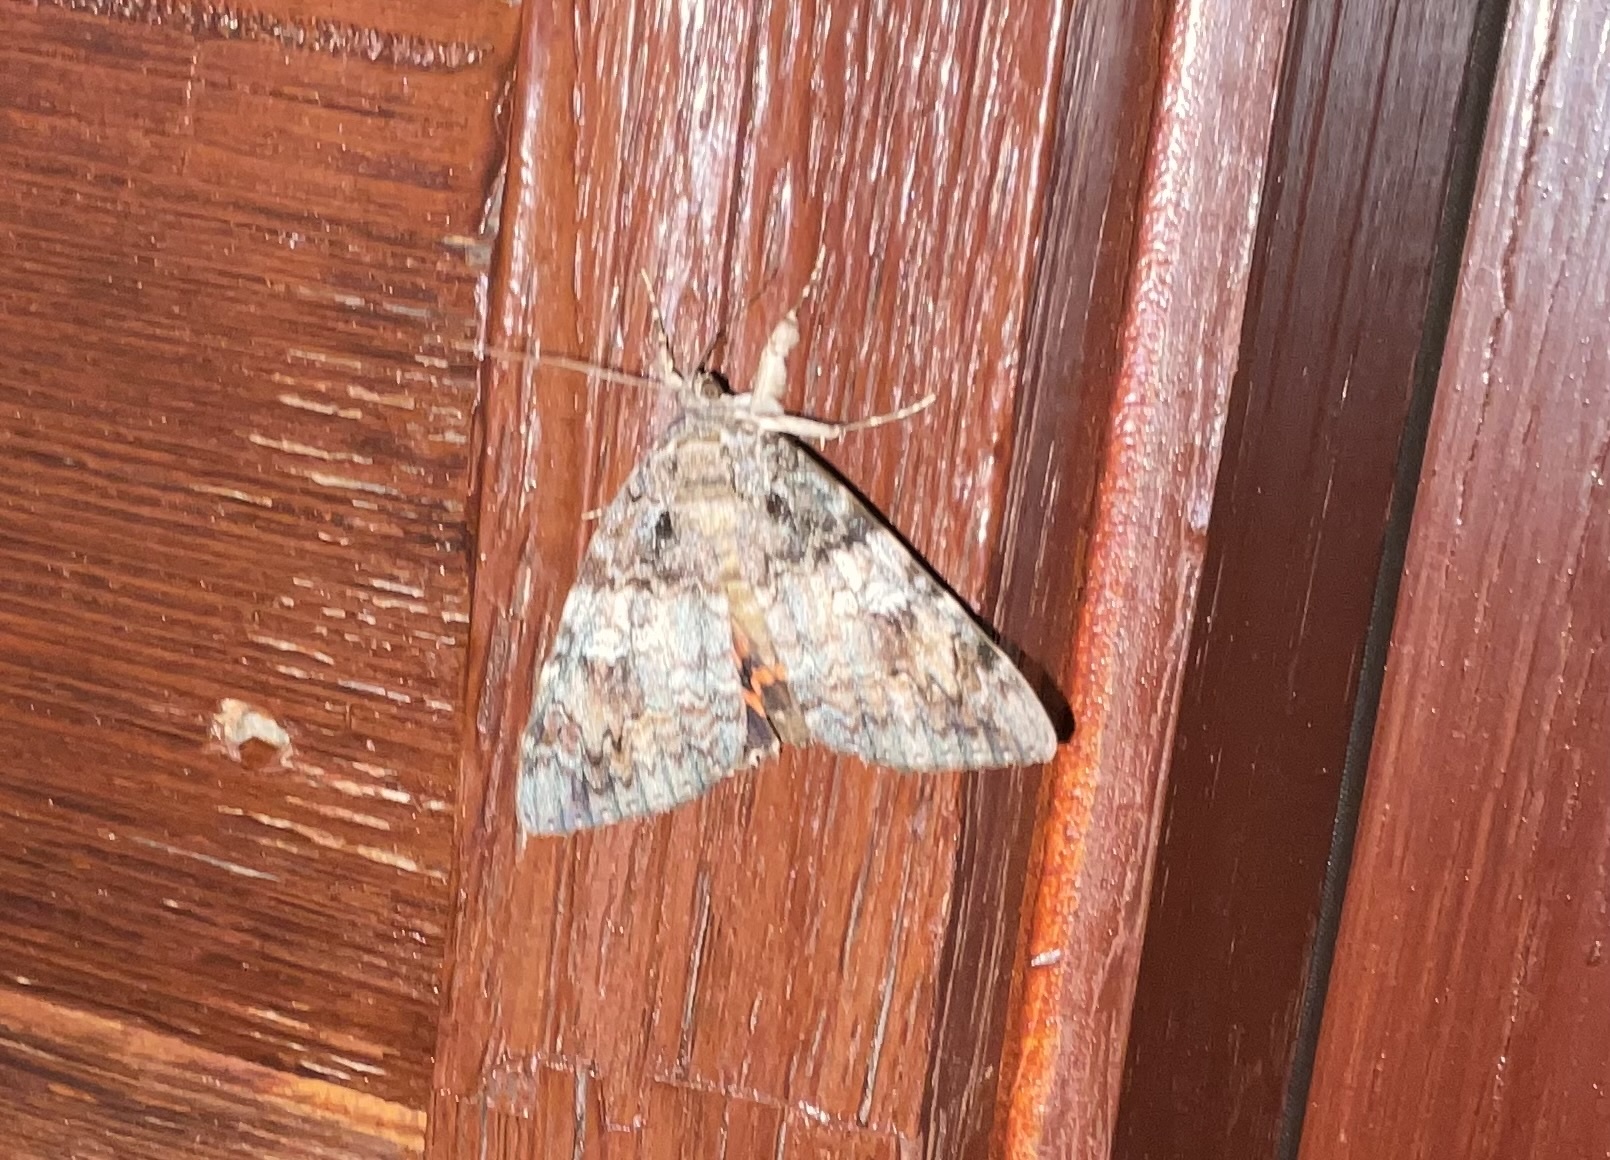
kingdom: Animalia
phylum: Arthropoda
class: Insecta
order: Lepidoptera
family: Erebidae
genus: Catocala
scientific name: Catocala ilia
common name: Ilia underwing
